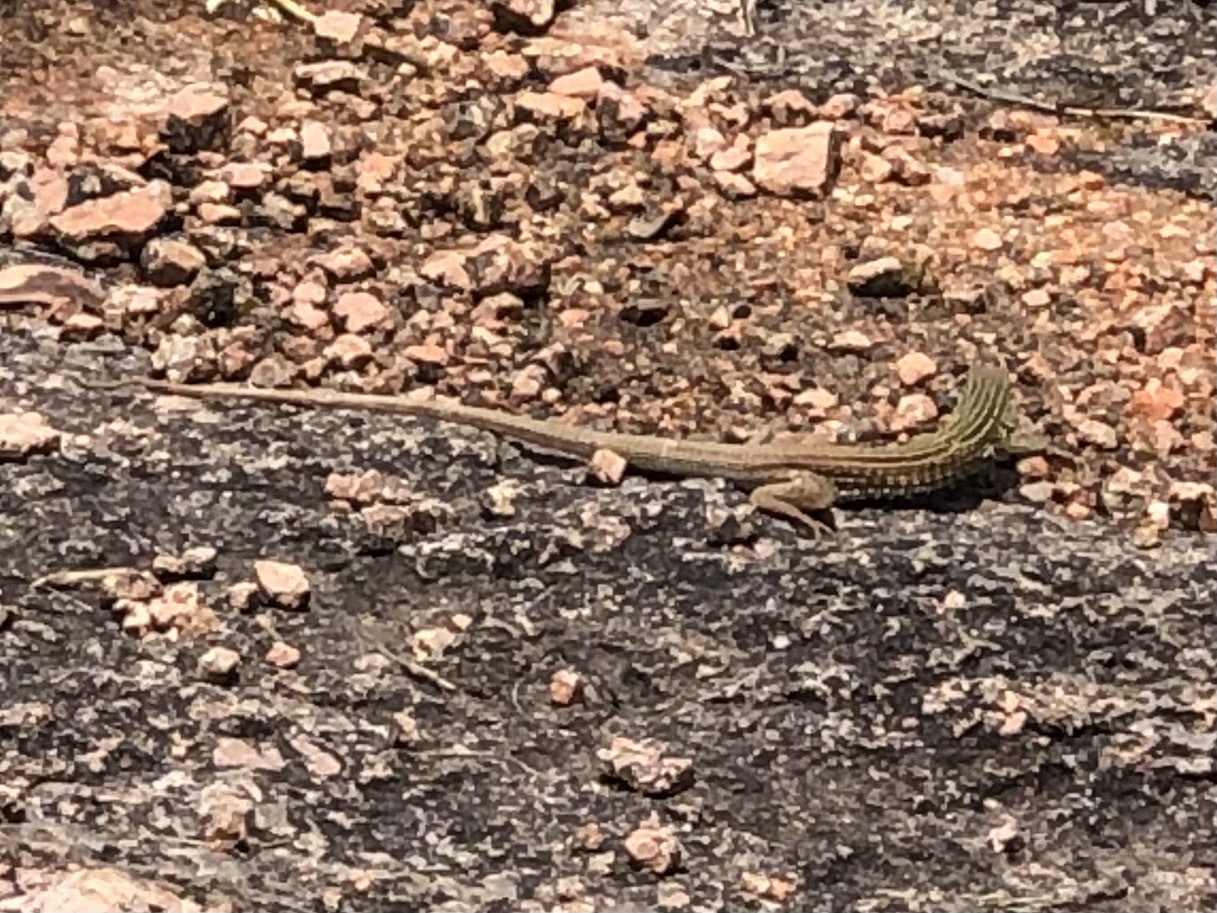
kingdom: Animalia
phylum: Chordata
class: Squamata
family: Teiidae
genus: Aspidoscelis
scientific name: Aspidoscelis gularis
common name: Eastern spotted whiptail
